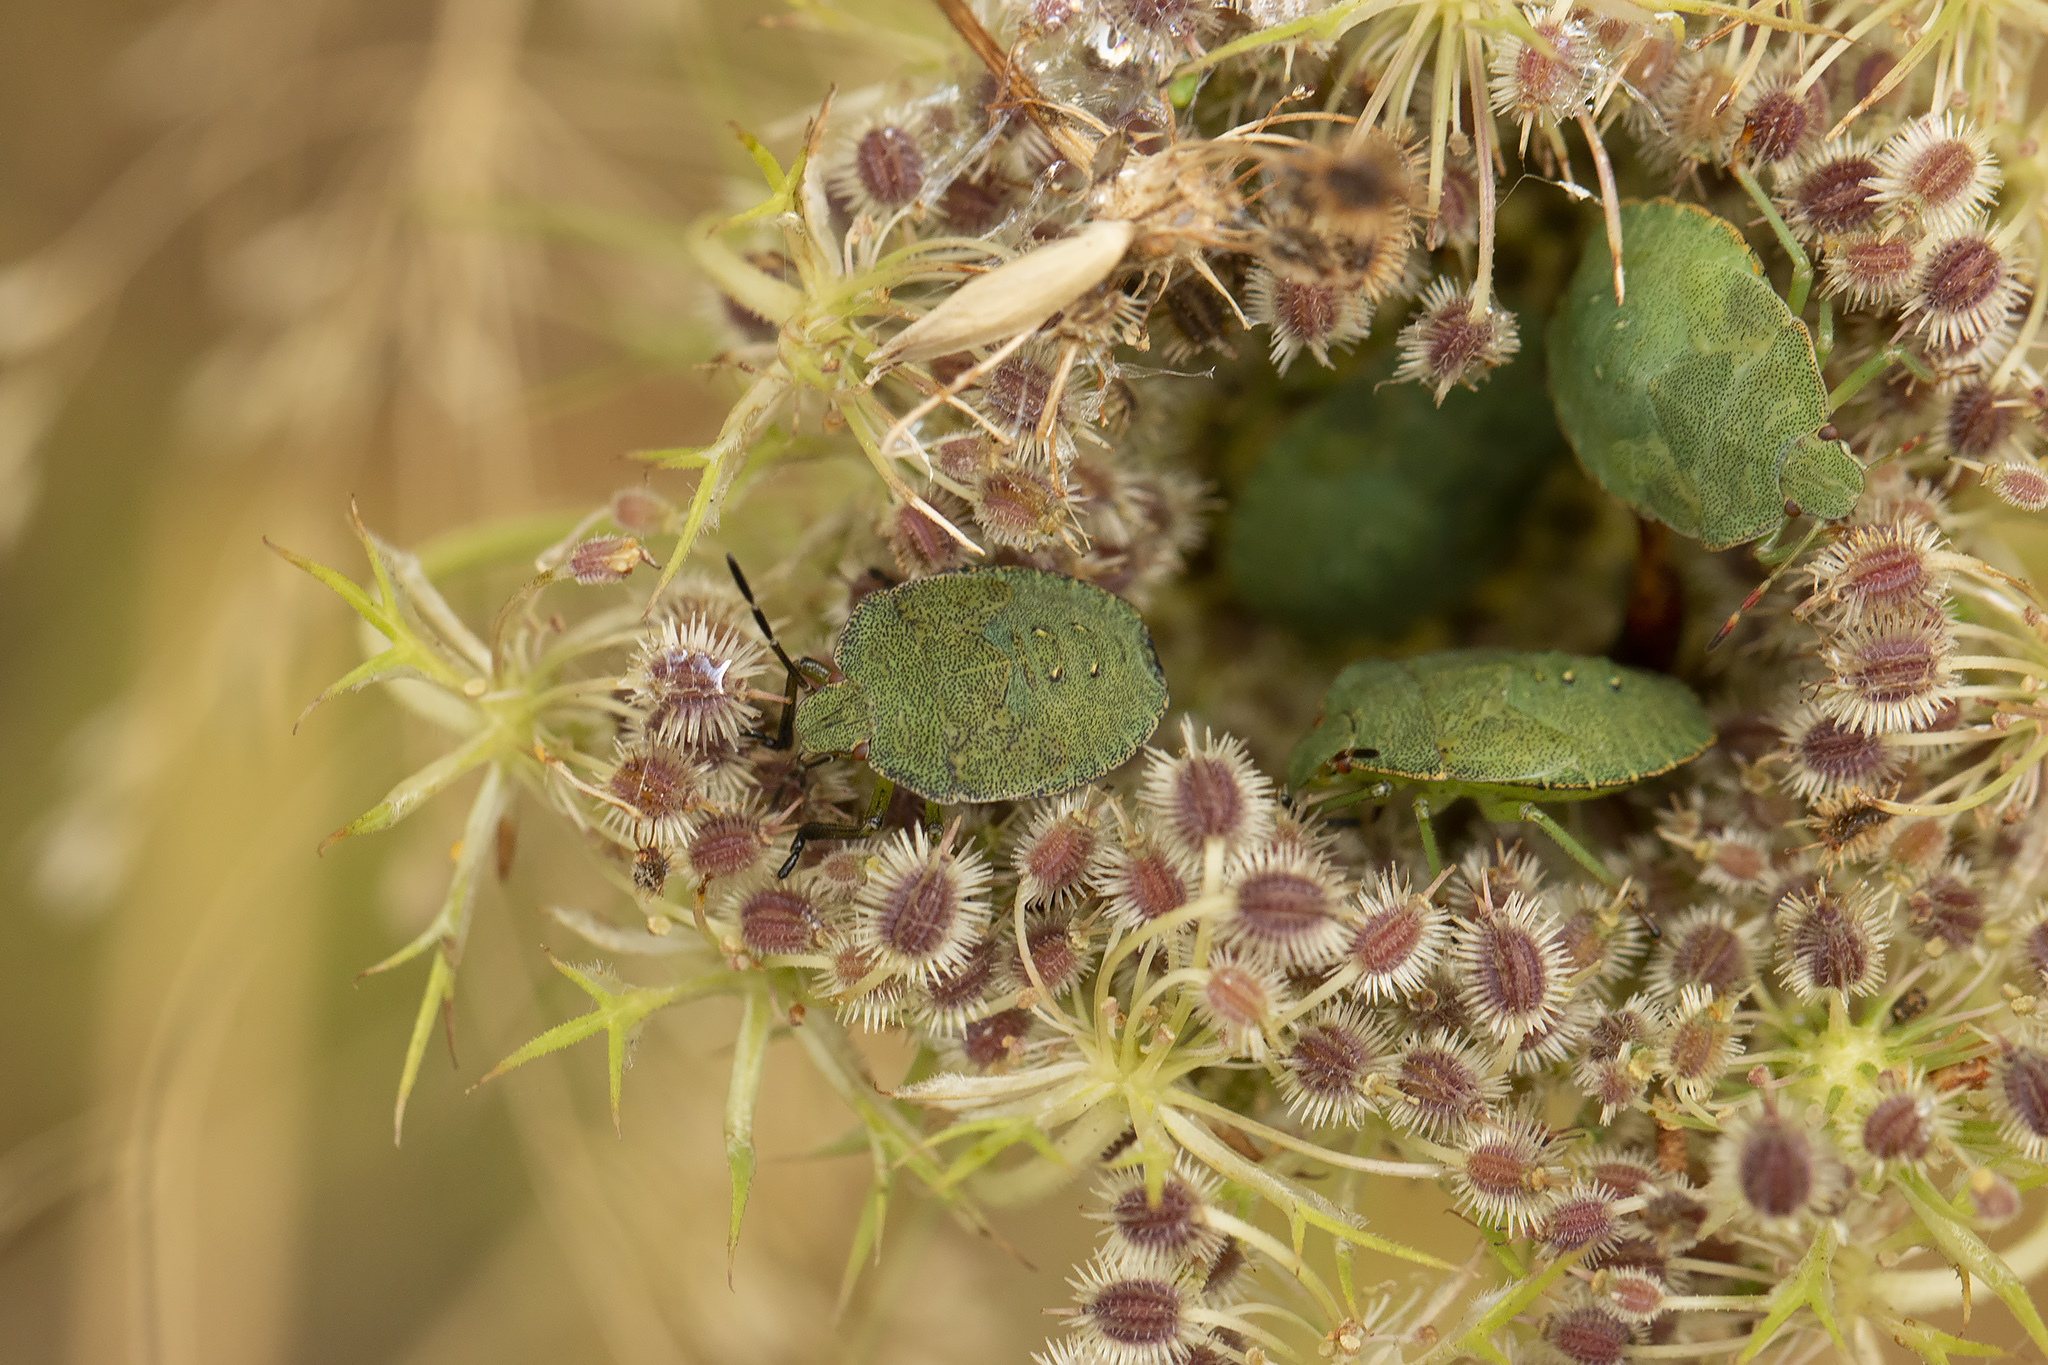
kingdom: Animalia
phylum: Arthropoda
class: Insecta
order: Hemiptera
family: Pentatomidae
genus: Palomena
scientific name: Palomena prasina
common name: Green shieldbug
